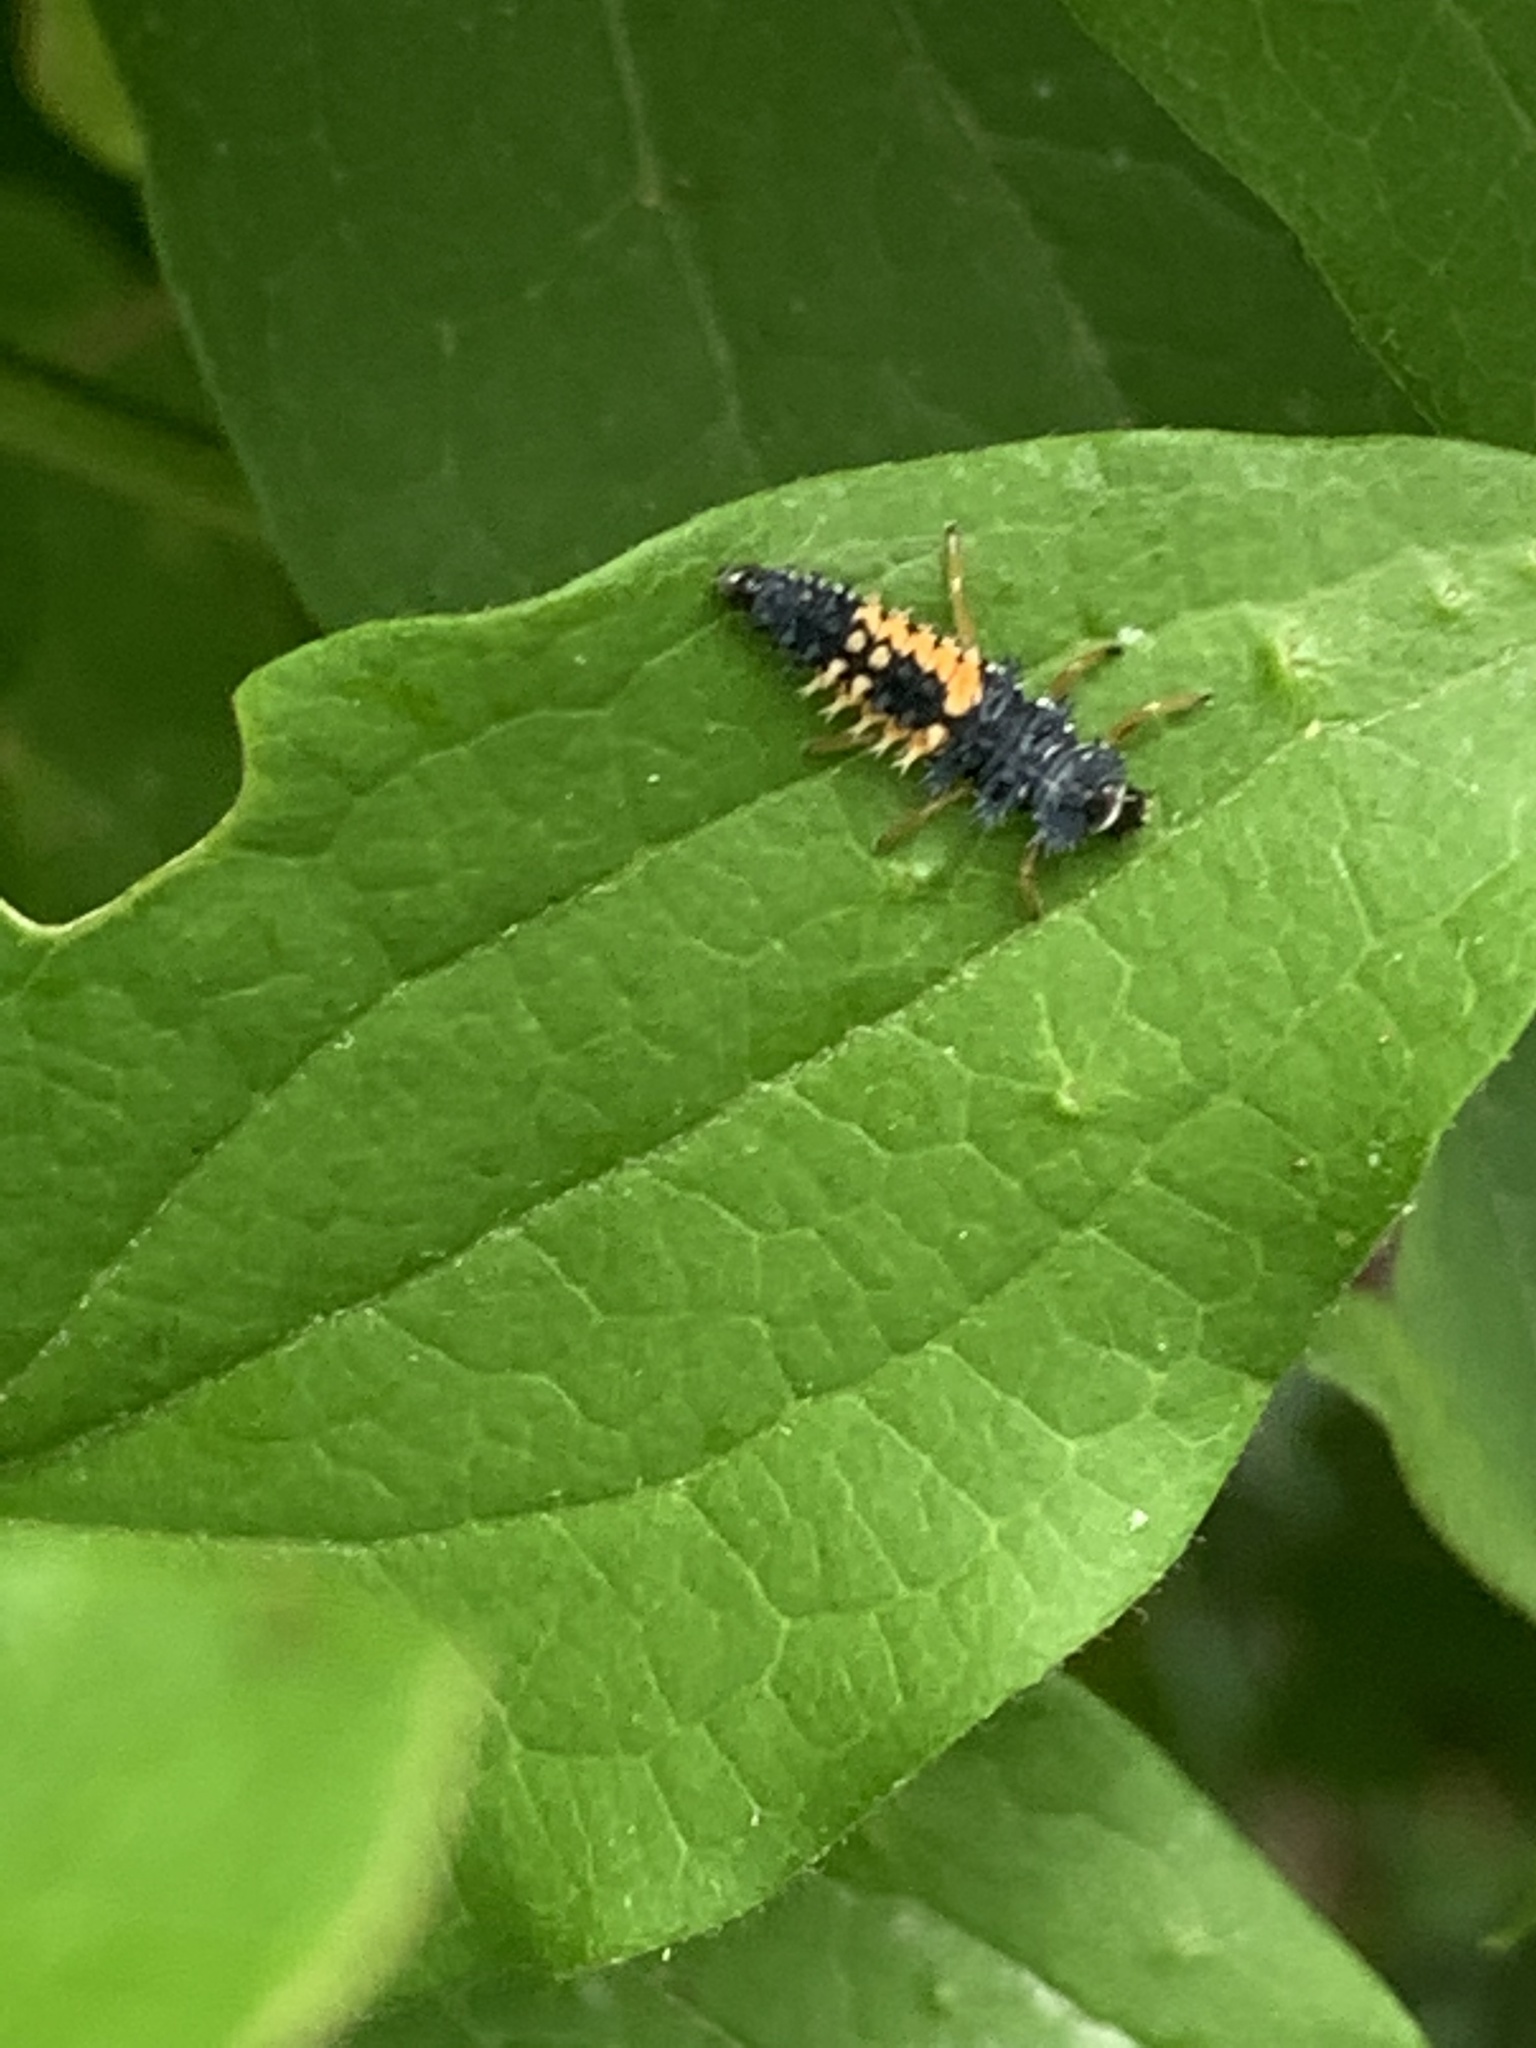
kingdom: Animalia
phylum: Arthropoda
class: Insecta
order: Coleoptera
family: Coccinellidae
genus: Harmonia
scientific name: Harmonia axyridis
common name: Harlequin ladybird
